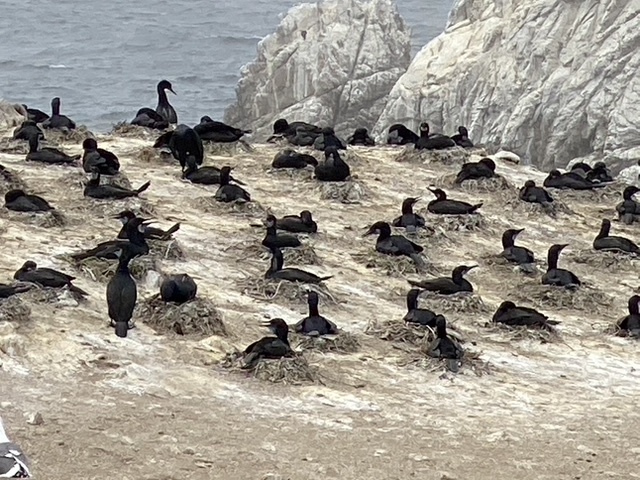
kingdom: Animalia
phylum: Chordata
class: Aves
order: Suliformes
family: Phalacrocoracidae
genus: Urile
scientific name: Urile penicillatus
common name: Brandt's cormorant
